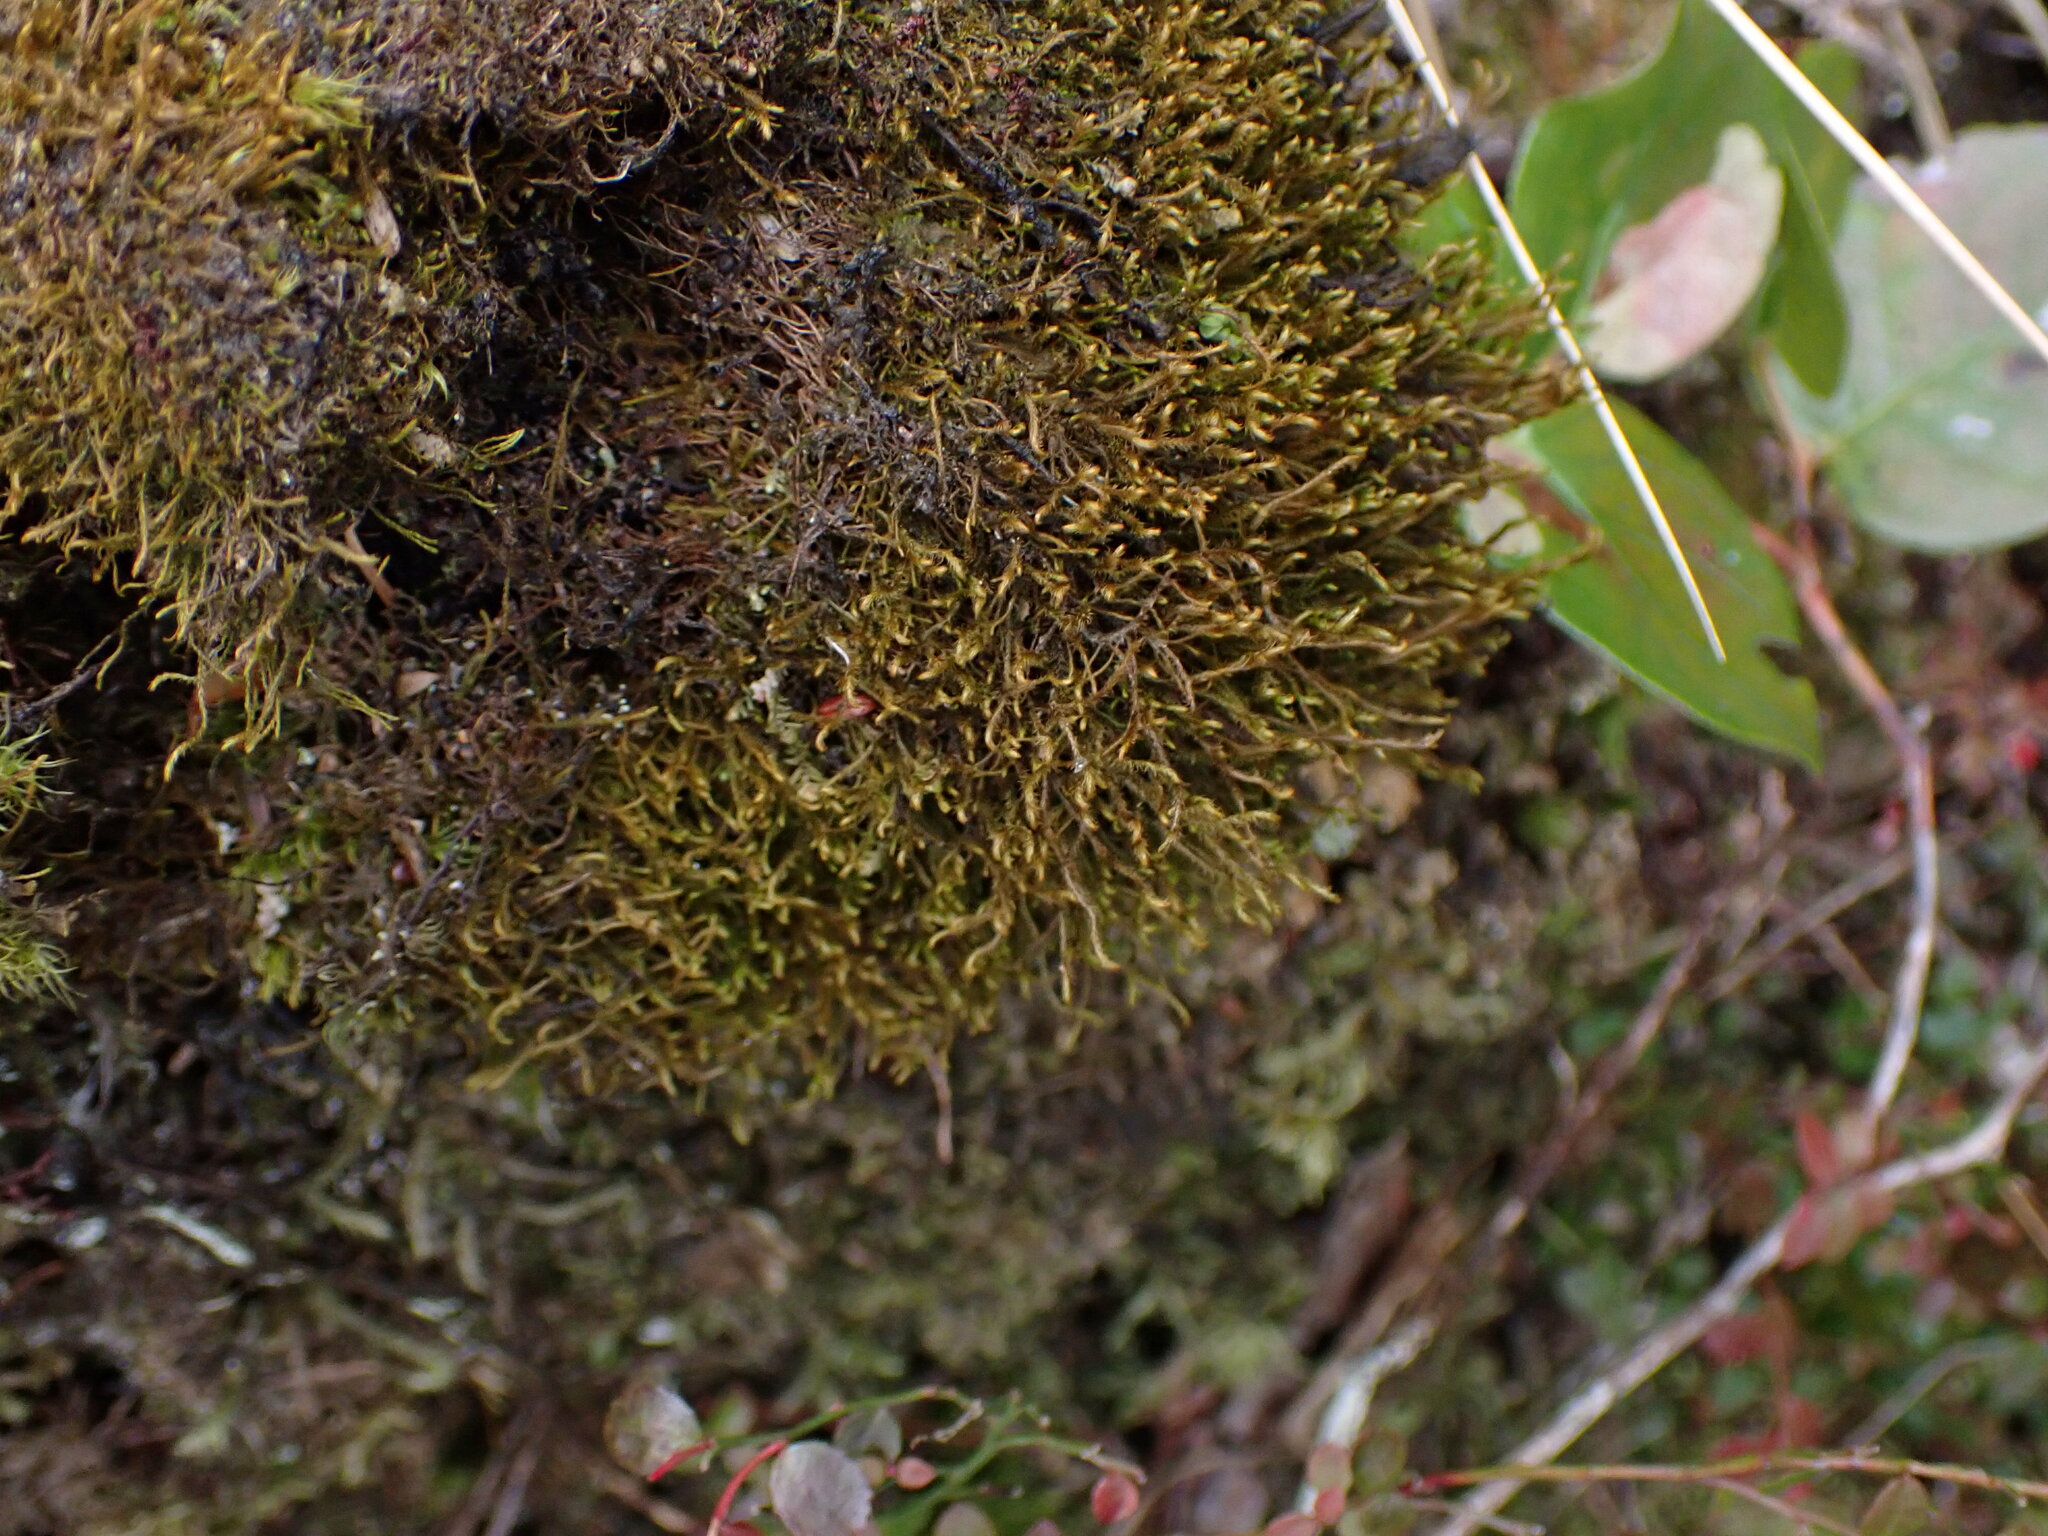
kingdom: Plantae
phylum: Marchantiophyta
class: Jungermanniopsida
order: Jungermanniales
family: Herbertaceae
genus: Herbertus
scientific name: Herbertus aduncus
